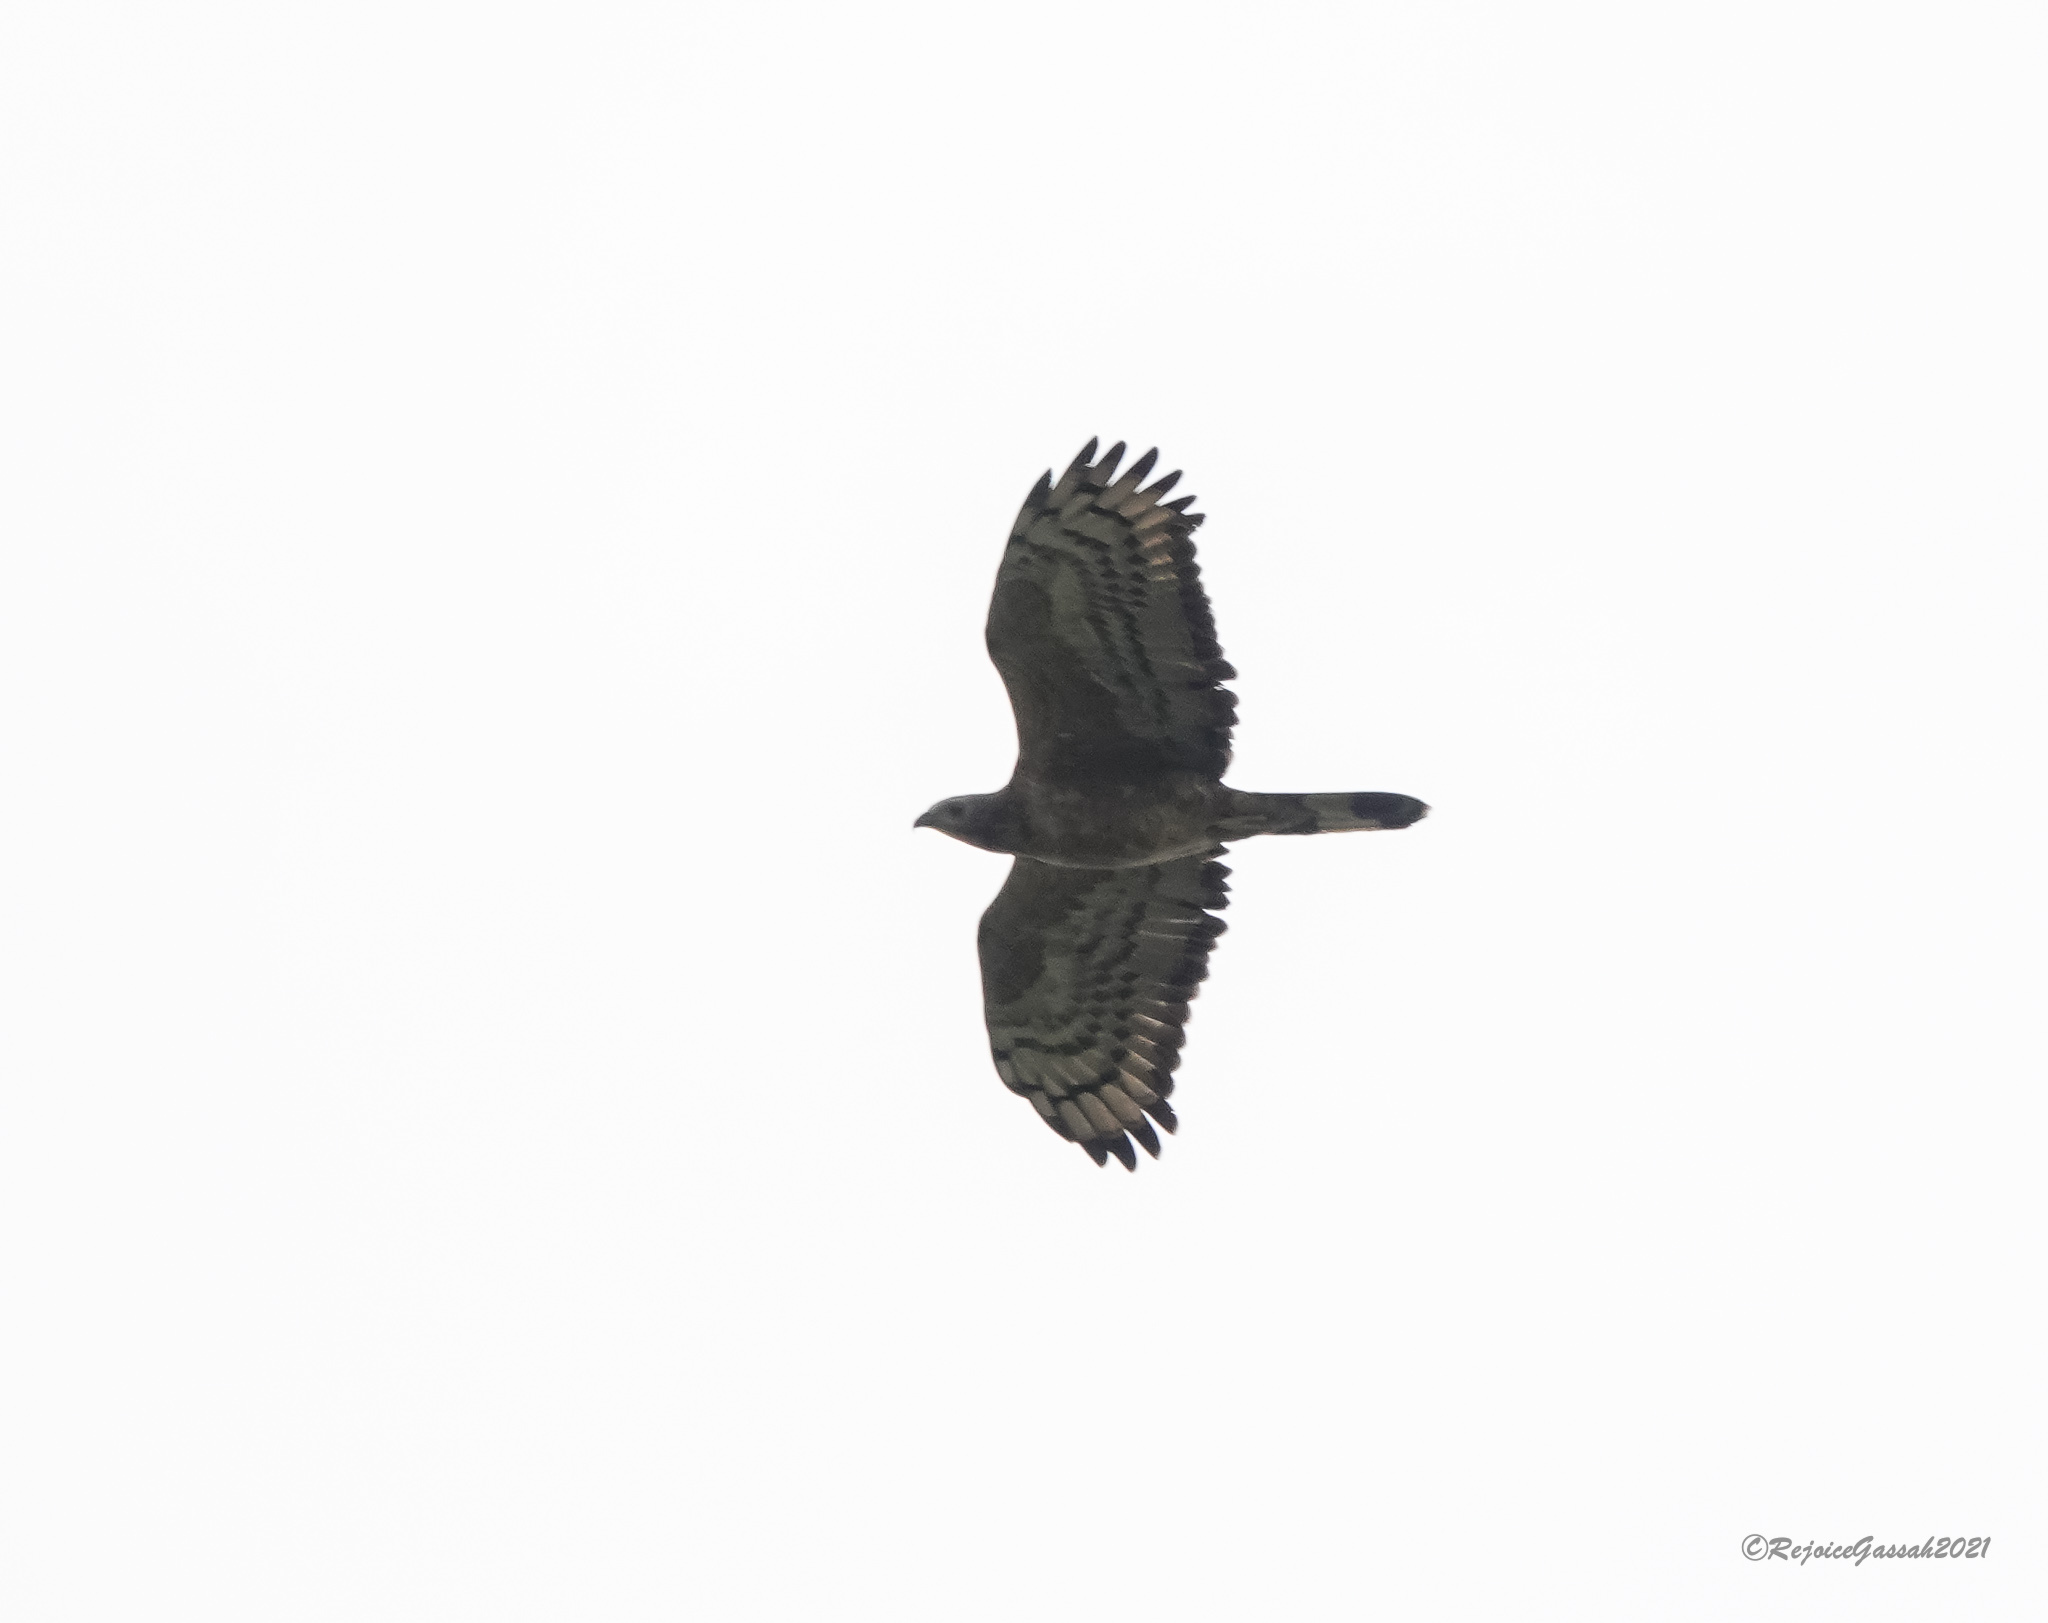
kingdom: Animalia
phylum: Chordata
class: Aves
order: Accipitriformes
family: Accipitridae
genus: Pernis
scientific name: Pernis ptilorhynchus
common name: Crested honey buzzard
